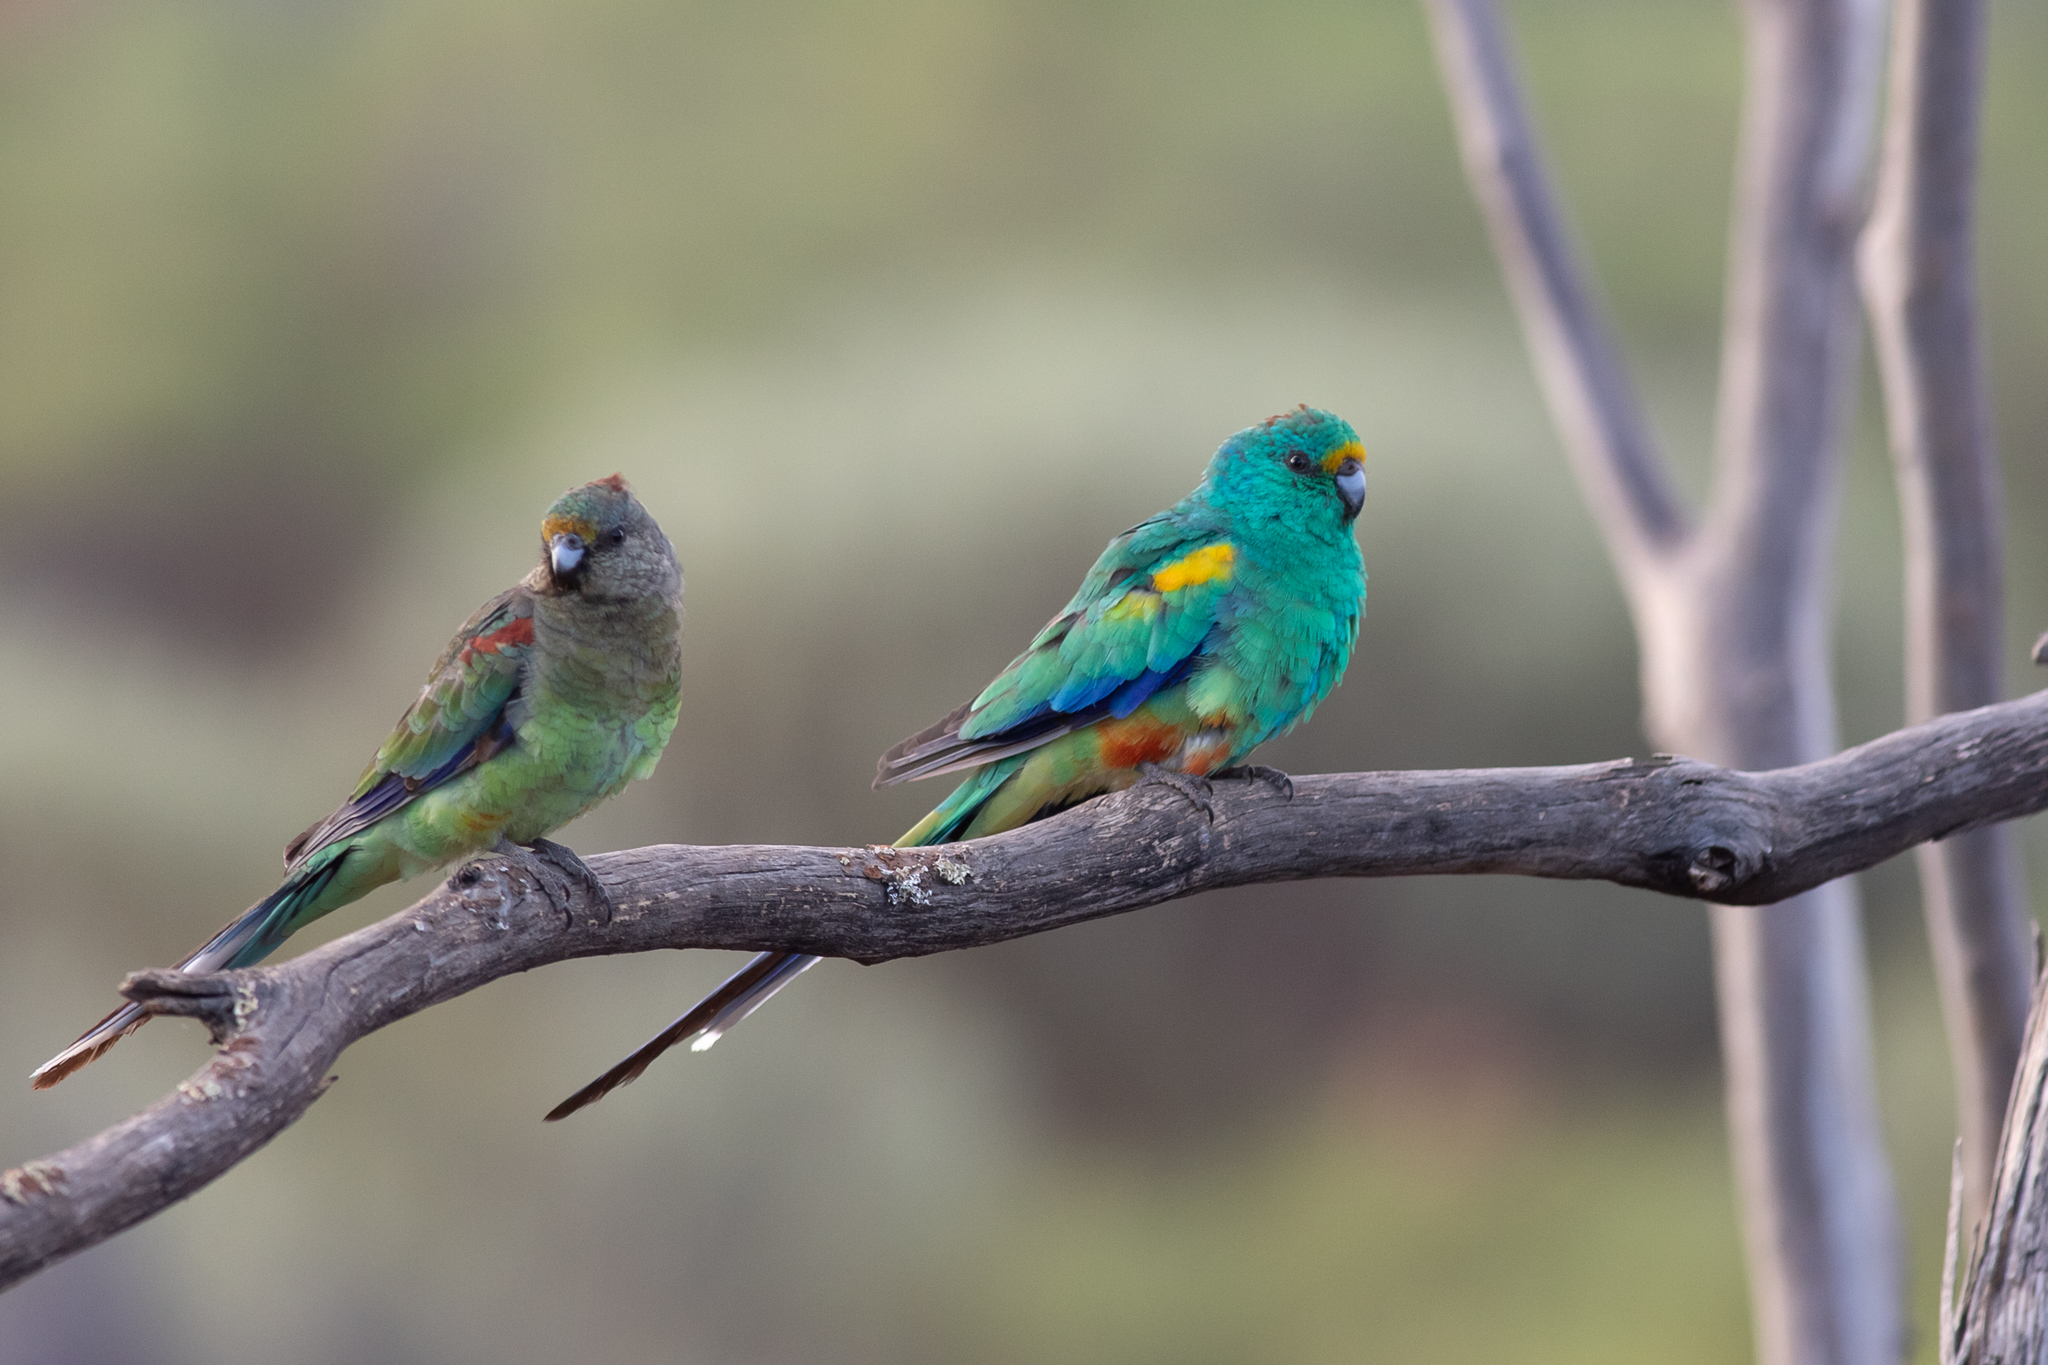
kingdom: Animalia
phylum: Chordata
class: Aves
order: Psittaciformes
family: Psittaculidae
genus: Psephotellus
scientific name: Psephotellus varius
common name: Mulga parrot
